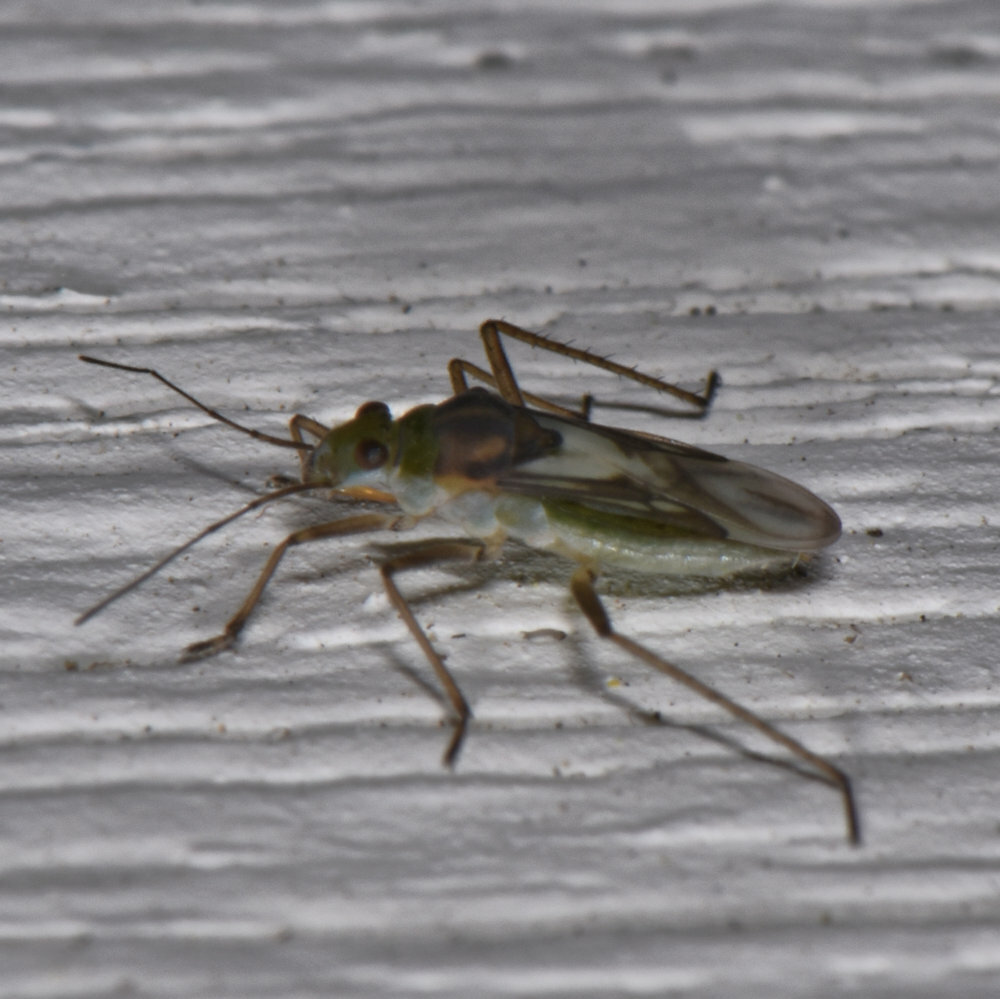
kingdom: Animalia
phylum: Arthropoda
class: Insecta
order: Hemiptera
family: Mesoveliidae
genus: Mesovelia
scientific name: Mesovelia mulsanti
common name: Water treaders
